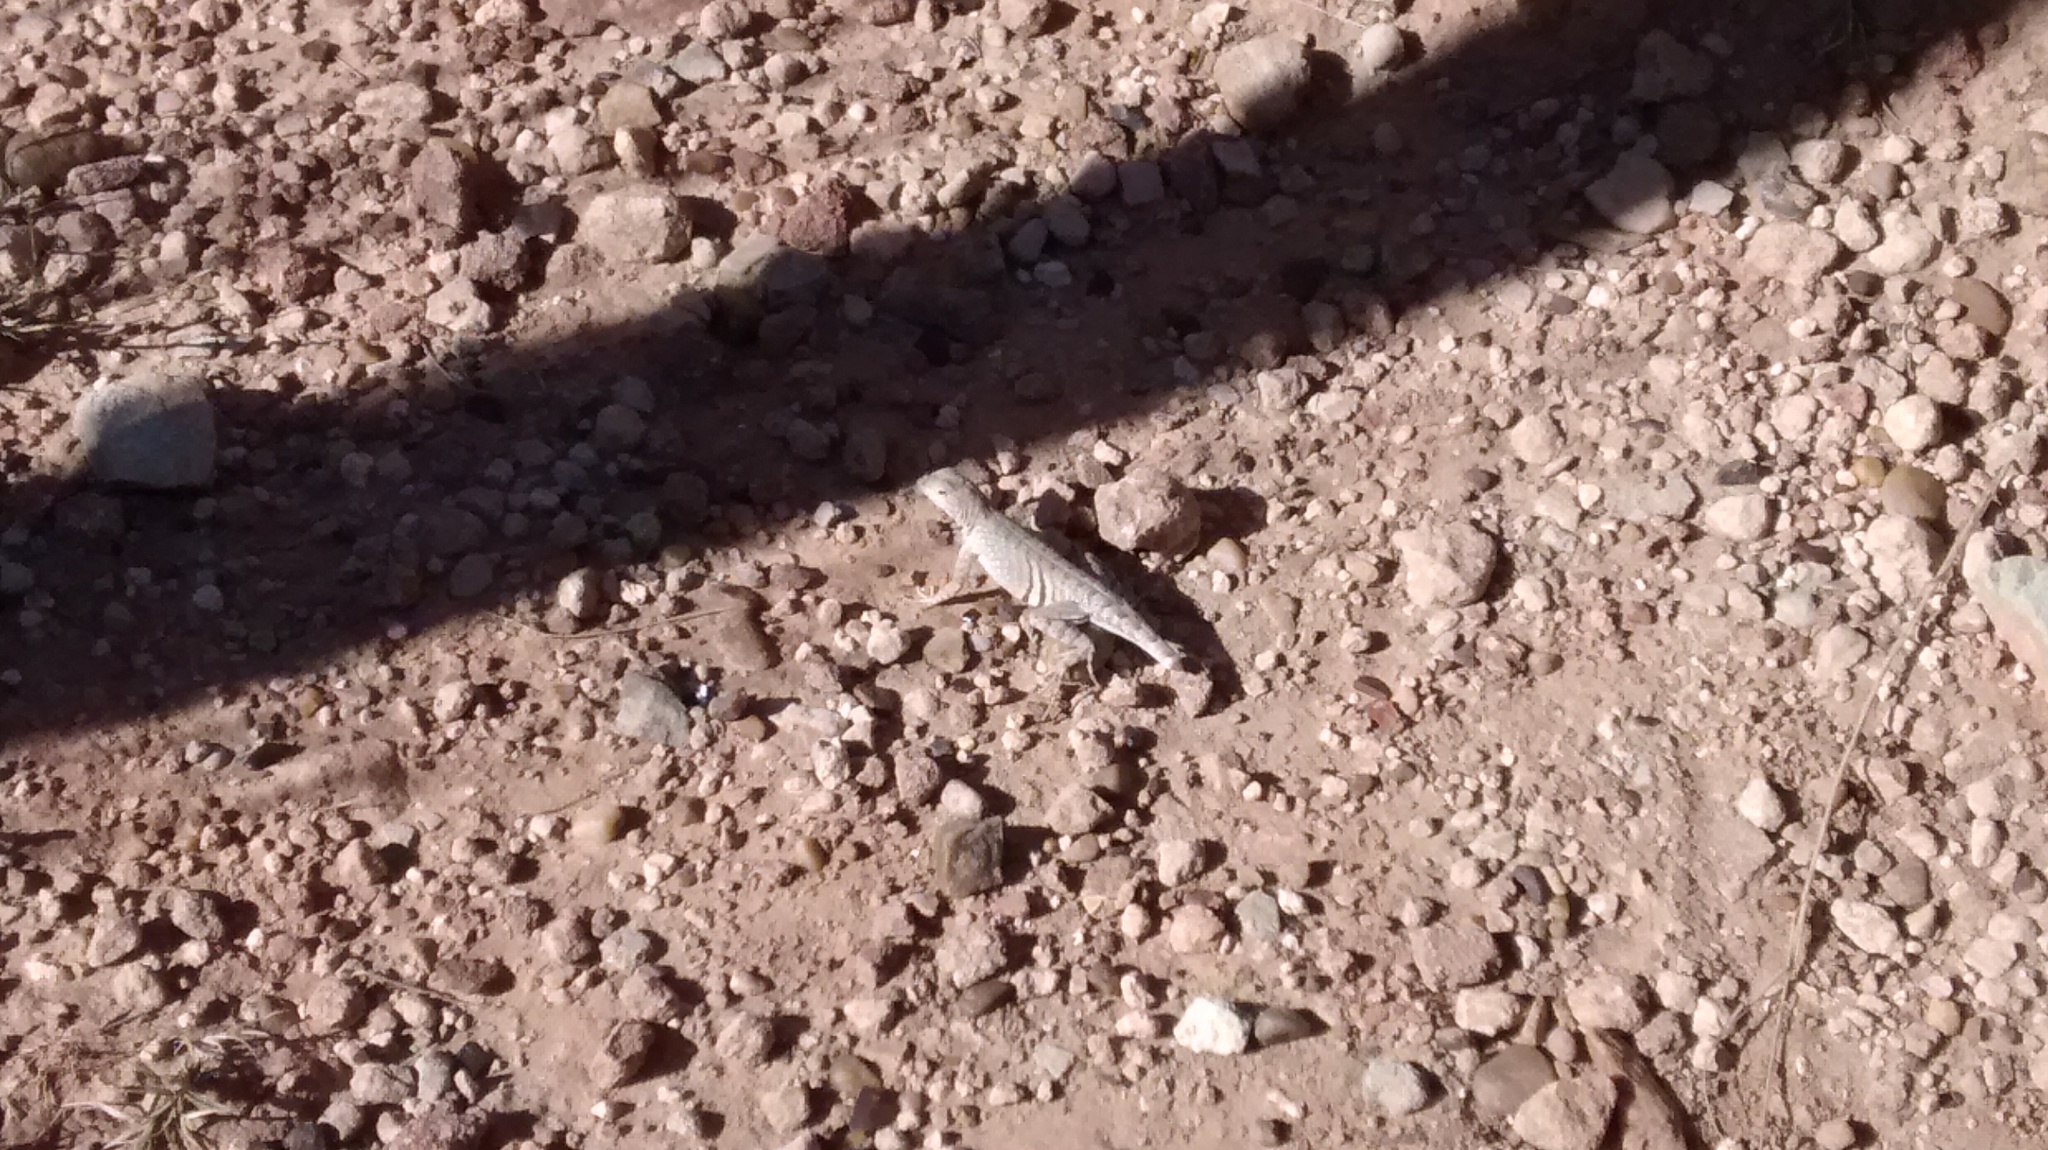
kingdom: Animalia
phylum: Chordata
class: Squamata
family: Phrynosomatidae
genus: Cophosaurus
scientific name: Cophosaurus texanus
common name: Greater earless lizard
